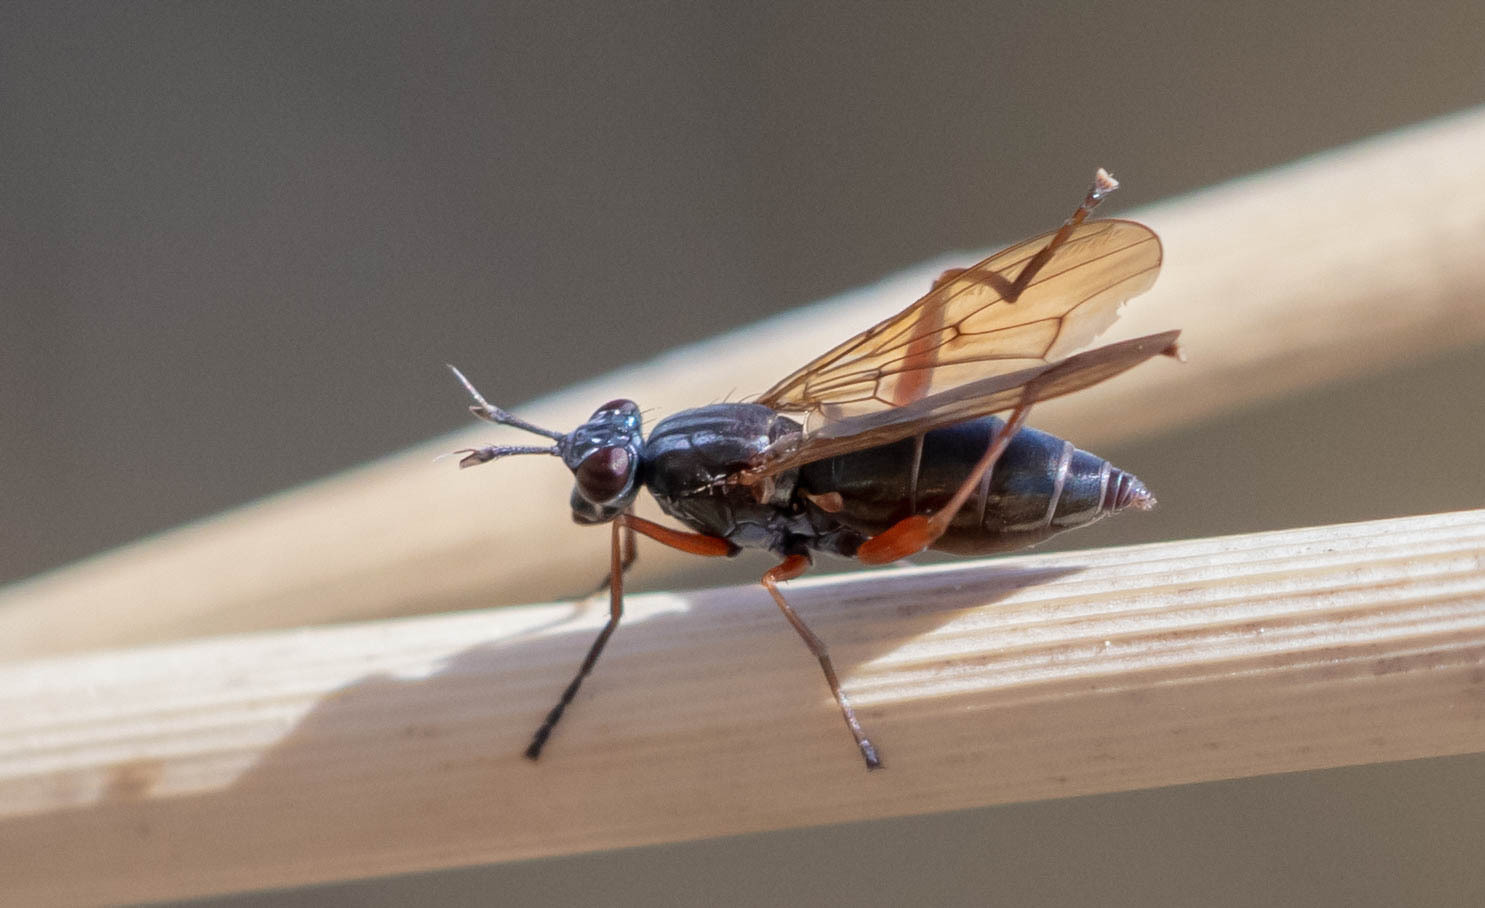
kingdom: Animalia
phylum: Arthropoda
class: Insecta
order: Diptera
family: Sciomyzidae
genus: Sepedon
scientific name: Sepedon sphegea
